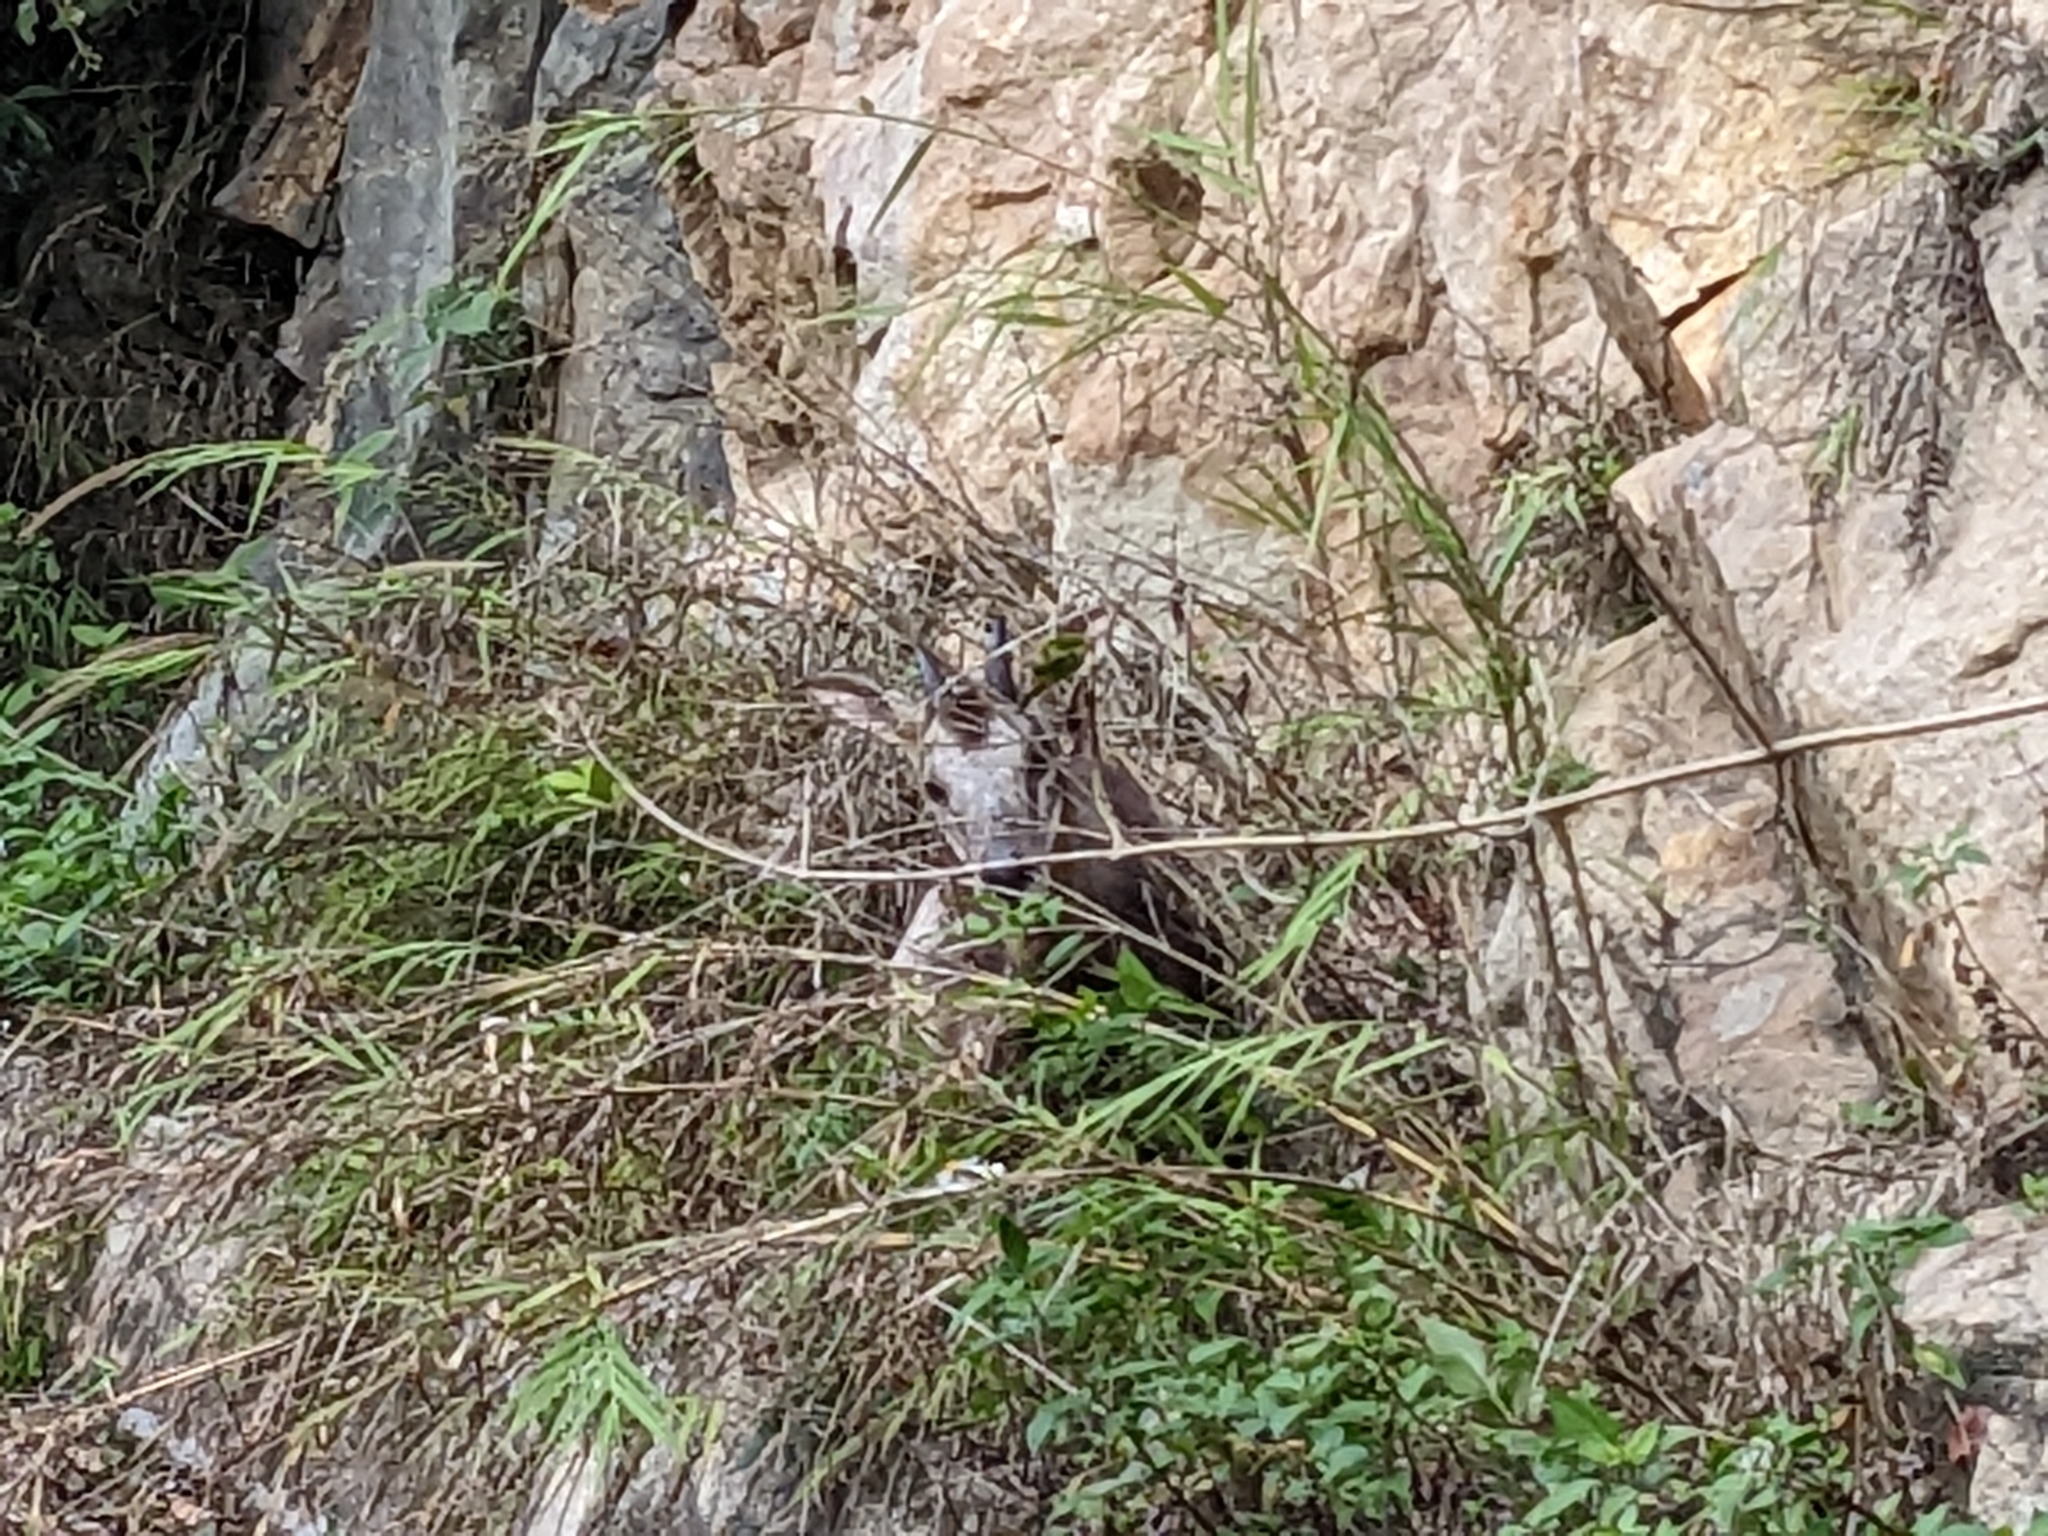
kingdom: Animalia
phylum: Chordata
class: Mammalia
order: Artiodactyla
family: Bovidae
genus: Capricornis
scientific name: Capricornis swinhoei
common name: Formosan serow
